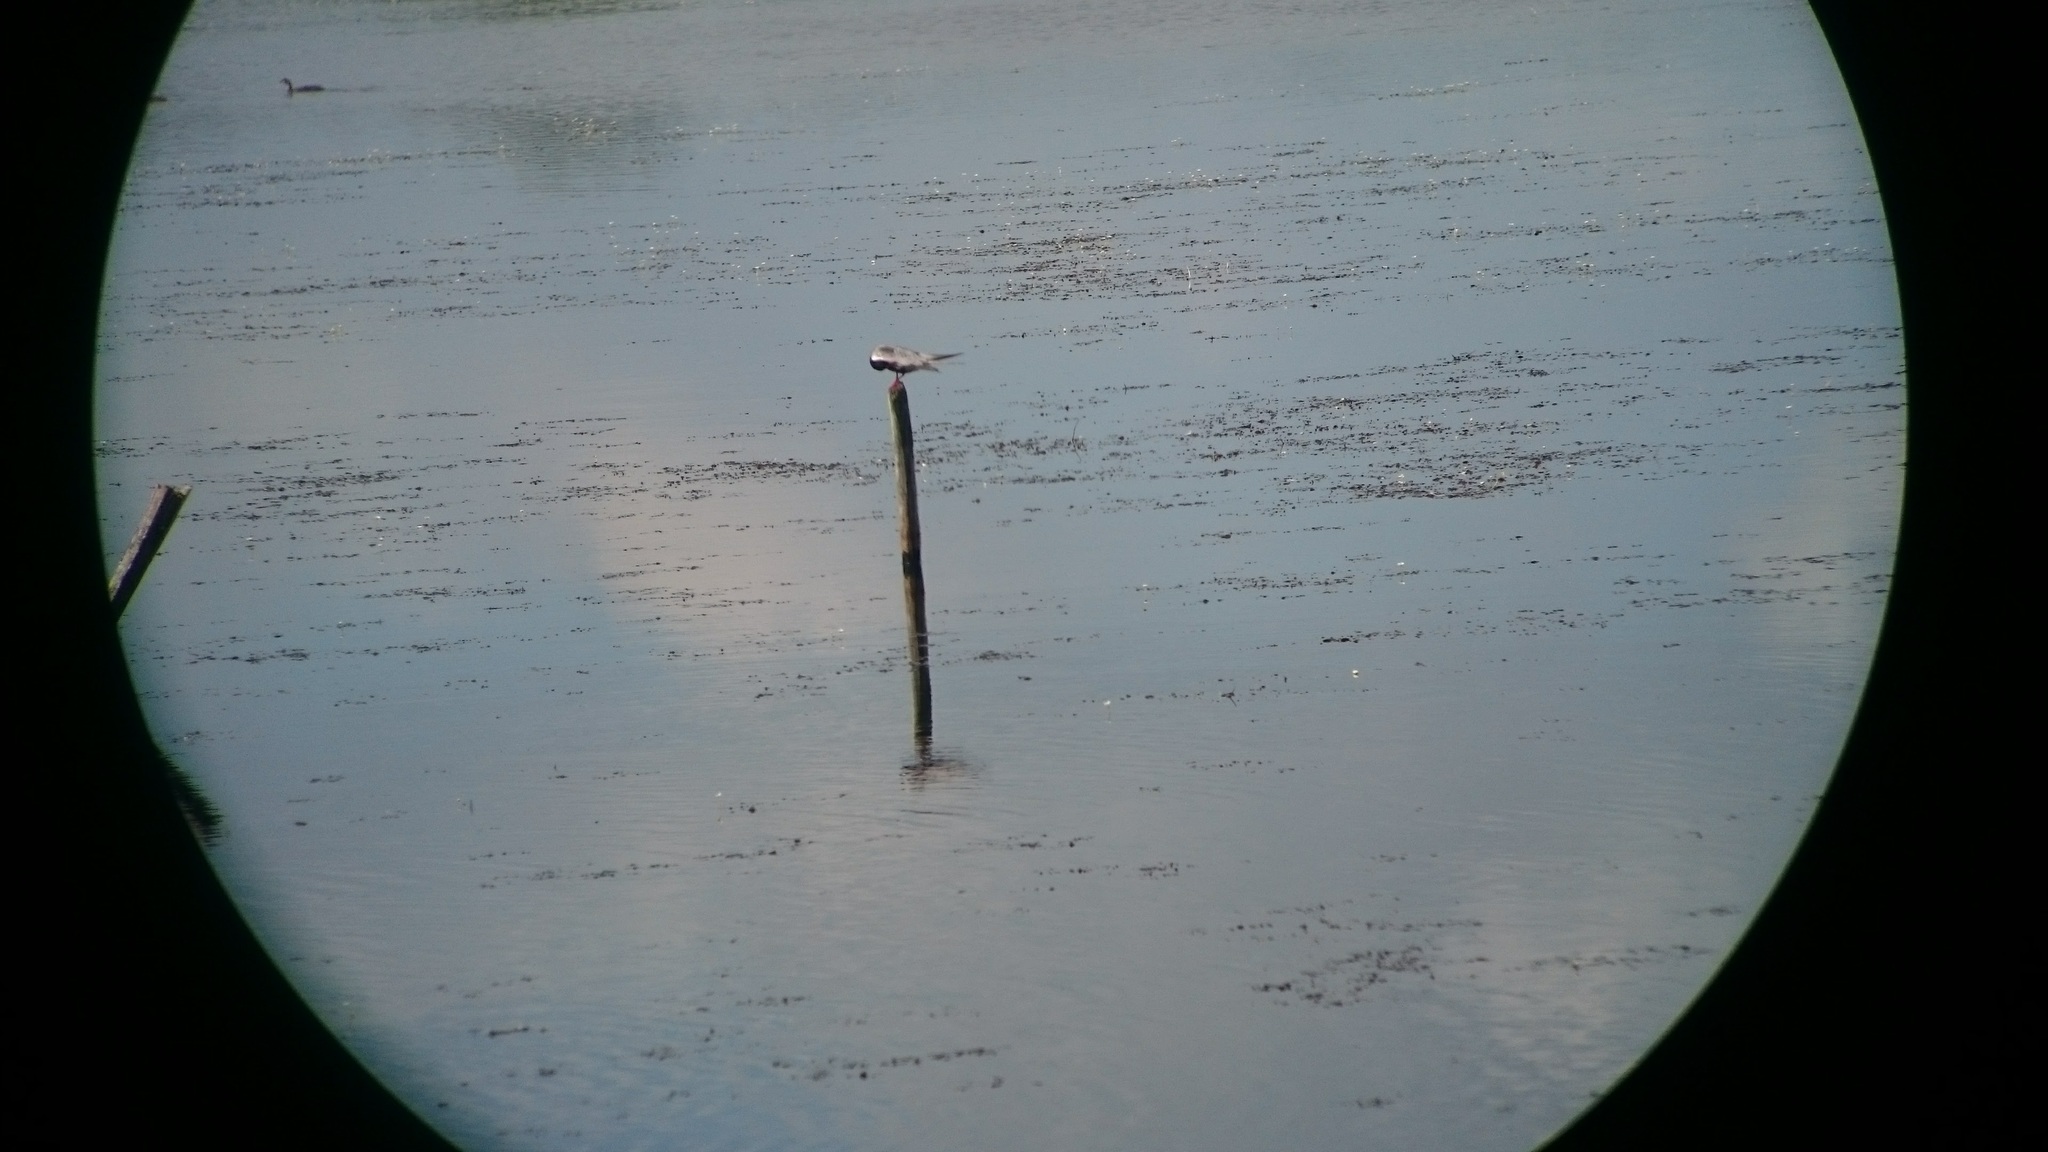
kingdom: Animalia
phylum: Chordata
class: Aves
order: Charadriiformes
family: Laridae
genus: Chlidonias
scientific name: Chlidonias hybrida
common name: Whiskered tern
